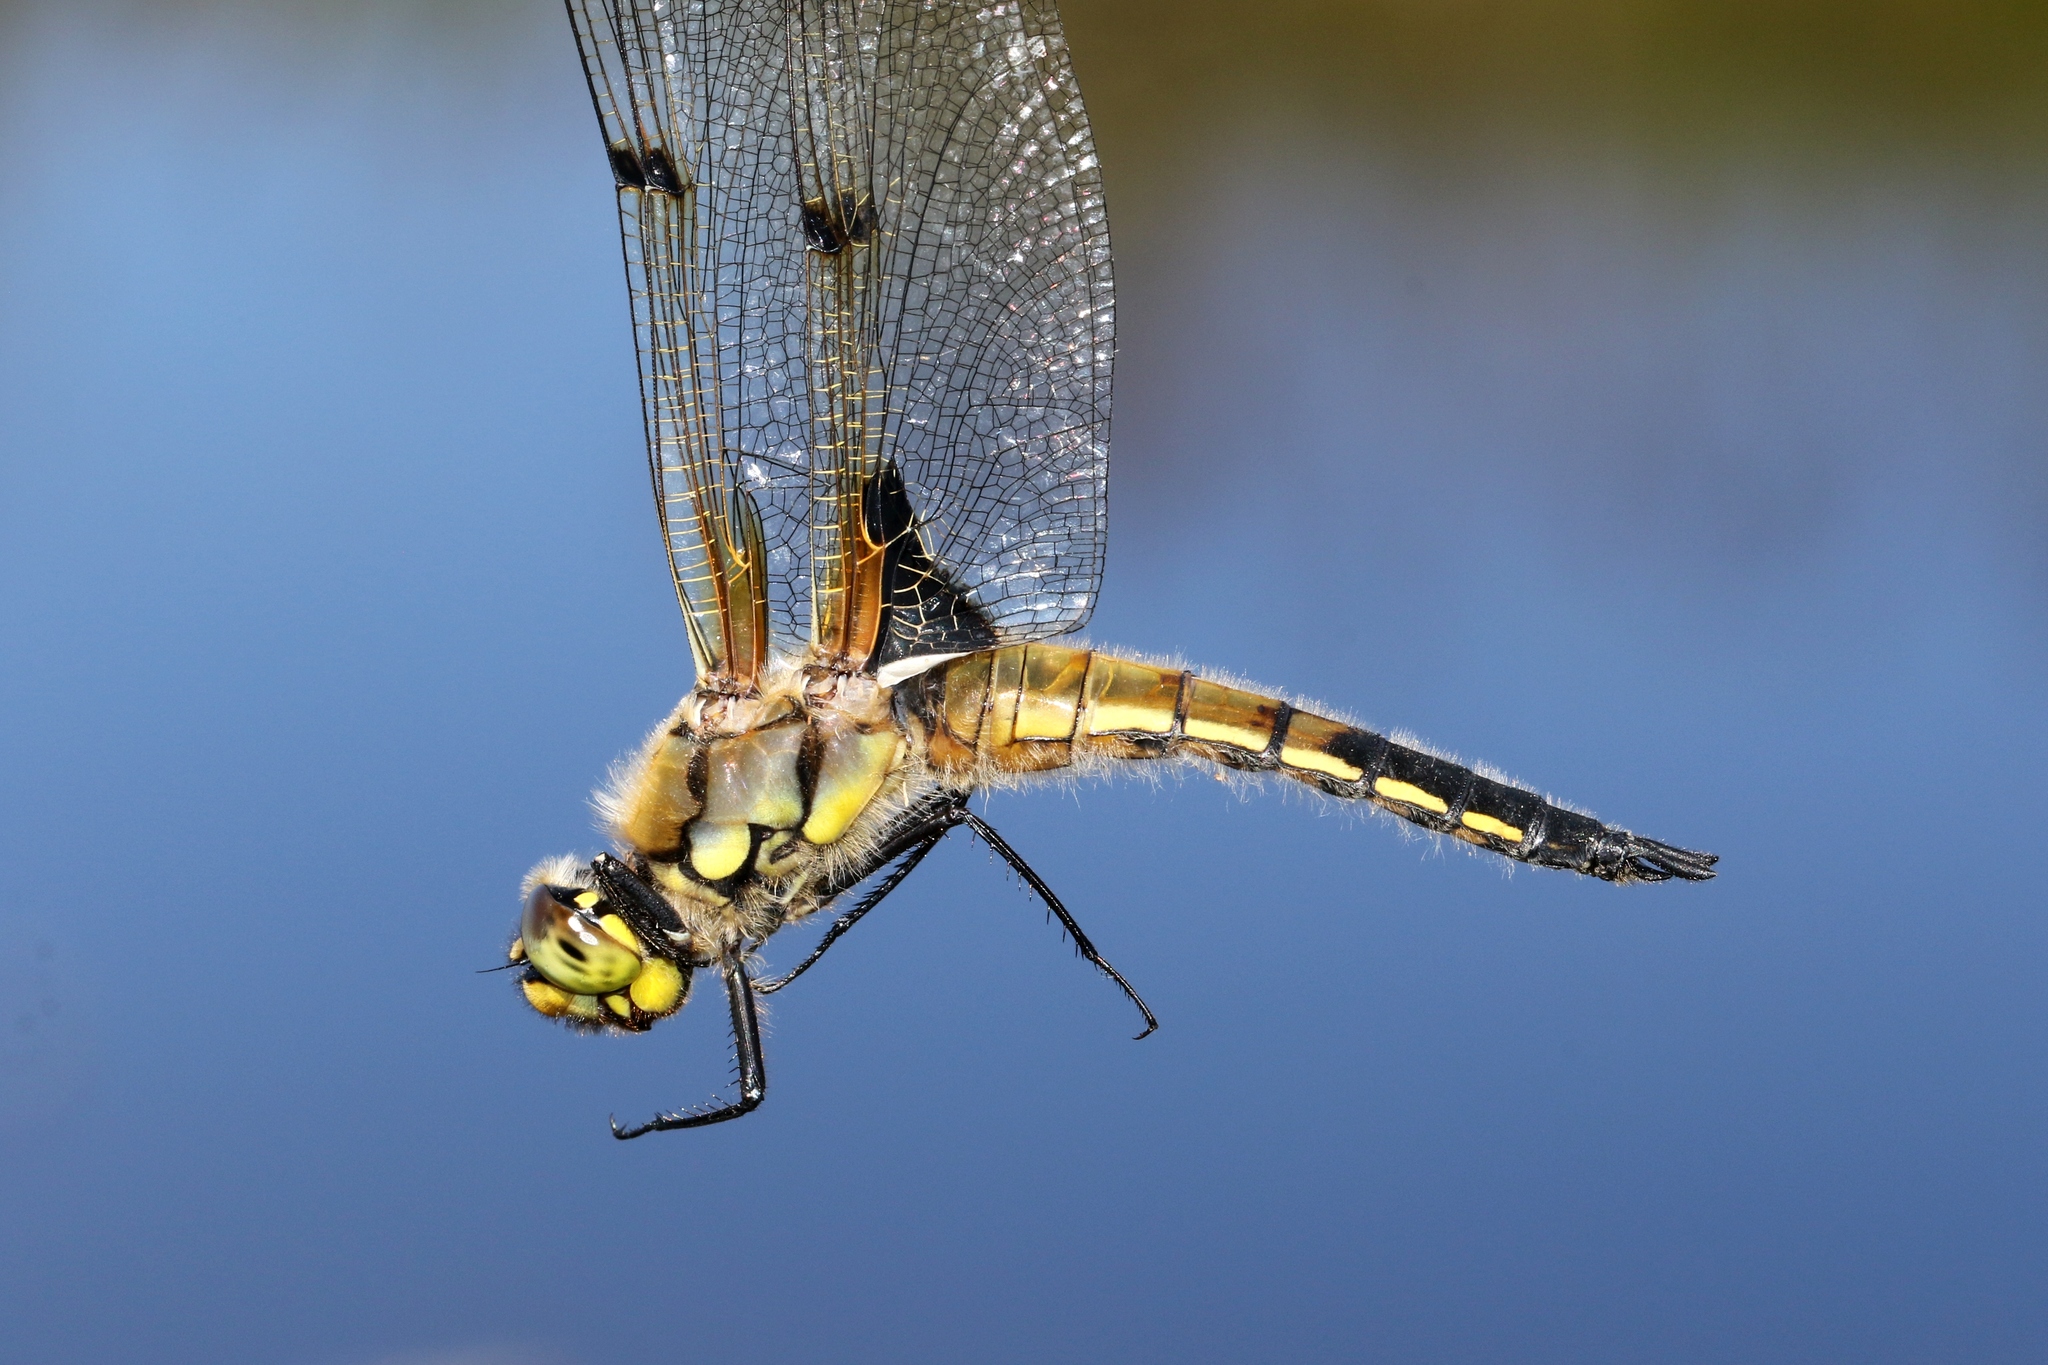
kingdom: Animalia
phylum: Arthropoda
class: Insecta
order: Odonata
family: Libellulidae
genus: Libellula
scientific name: Libellula quadrimaculata
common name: Four-spotted chaser
